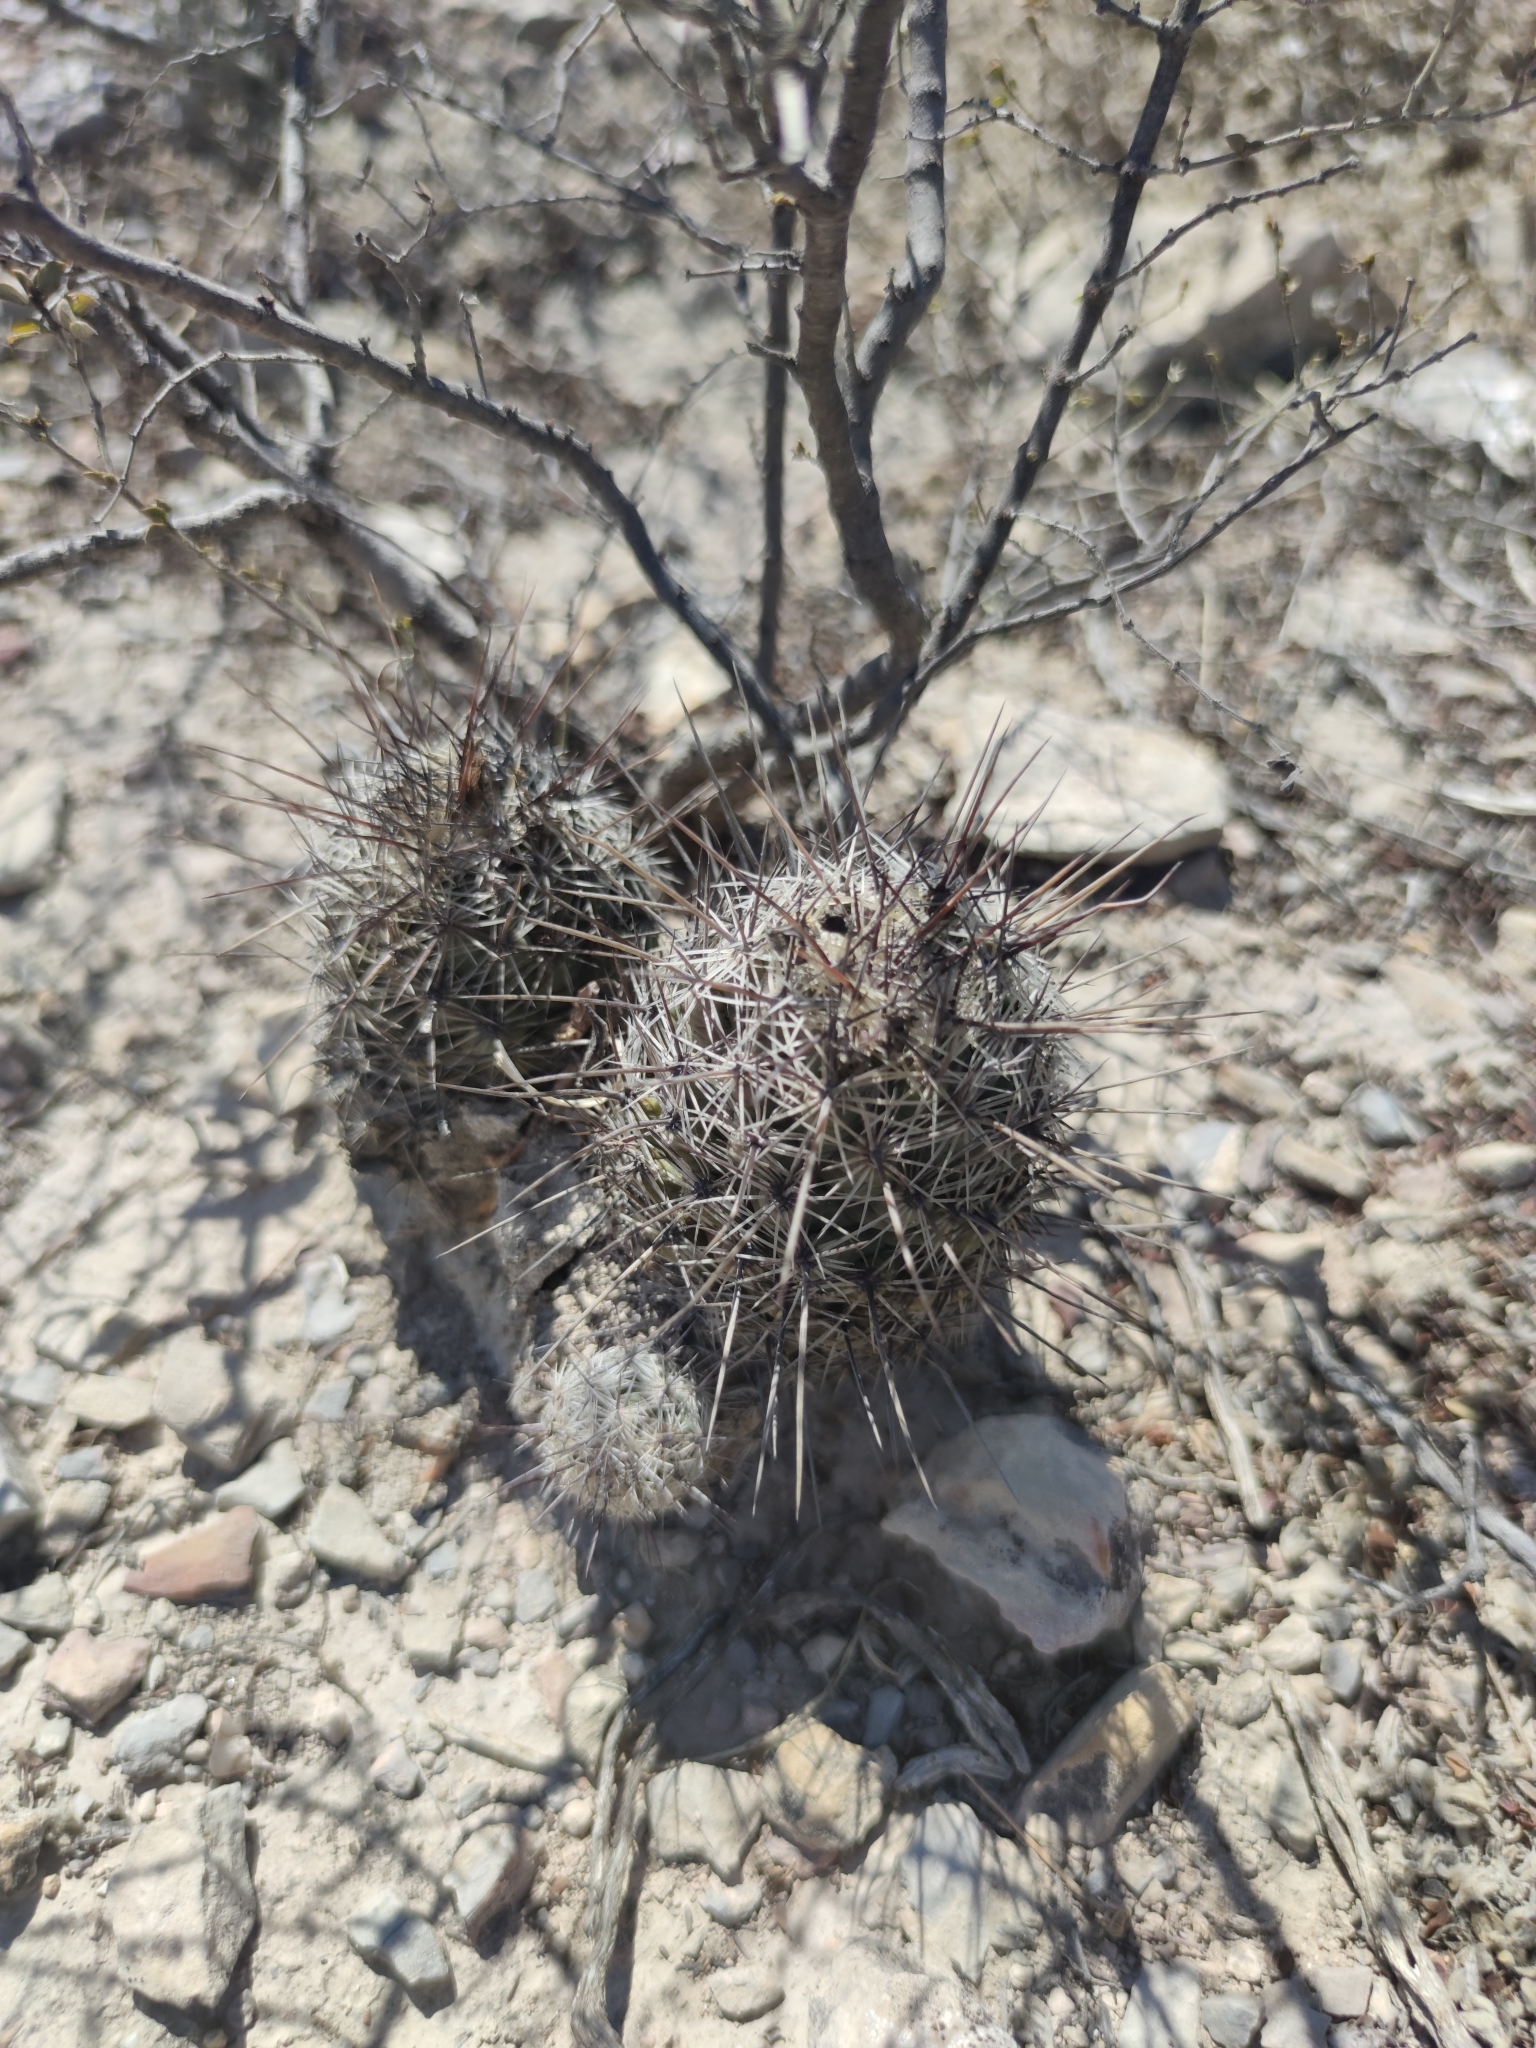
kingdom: Plantae
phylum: Tracheophyta
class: Magnoliopsida
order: Caryophyllales
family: Cactaceae
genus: Cochemiea
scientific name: Cochemiea conoidea
